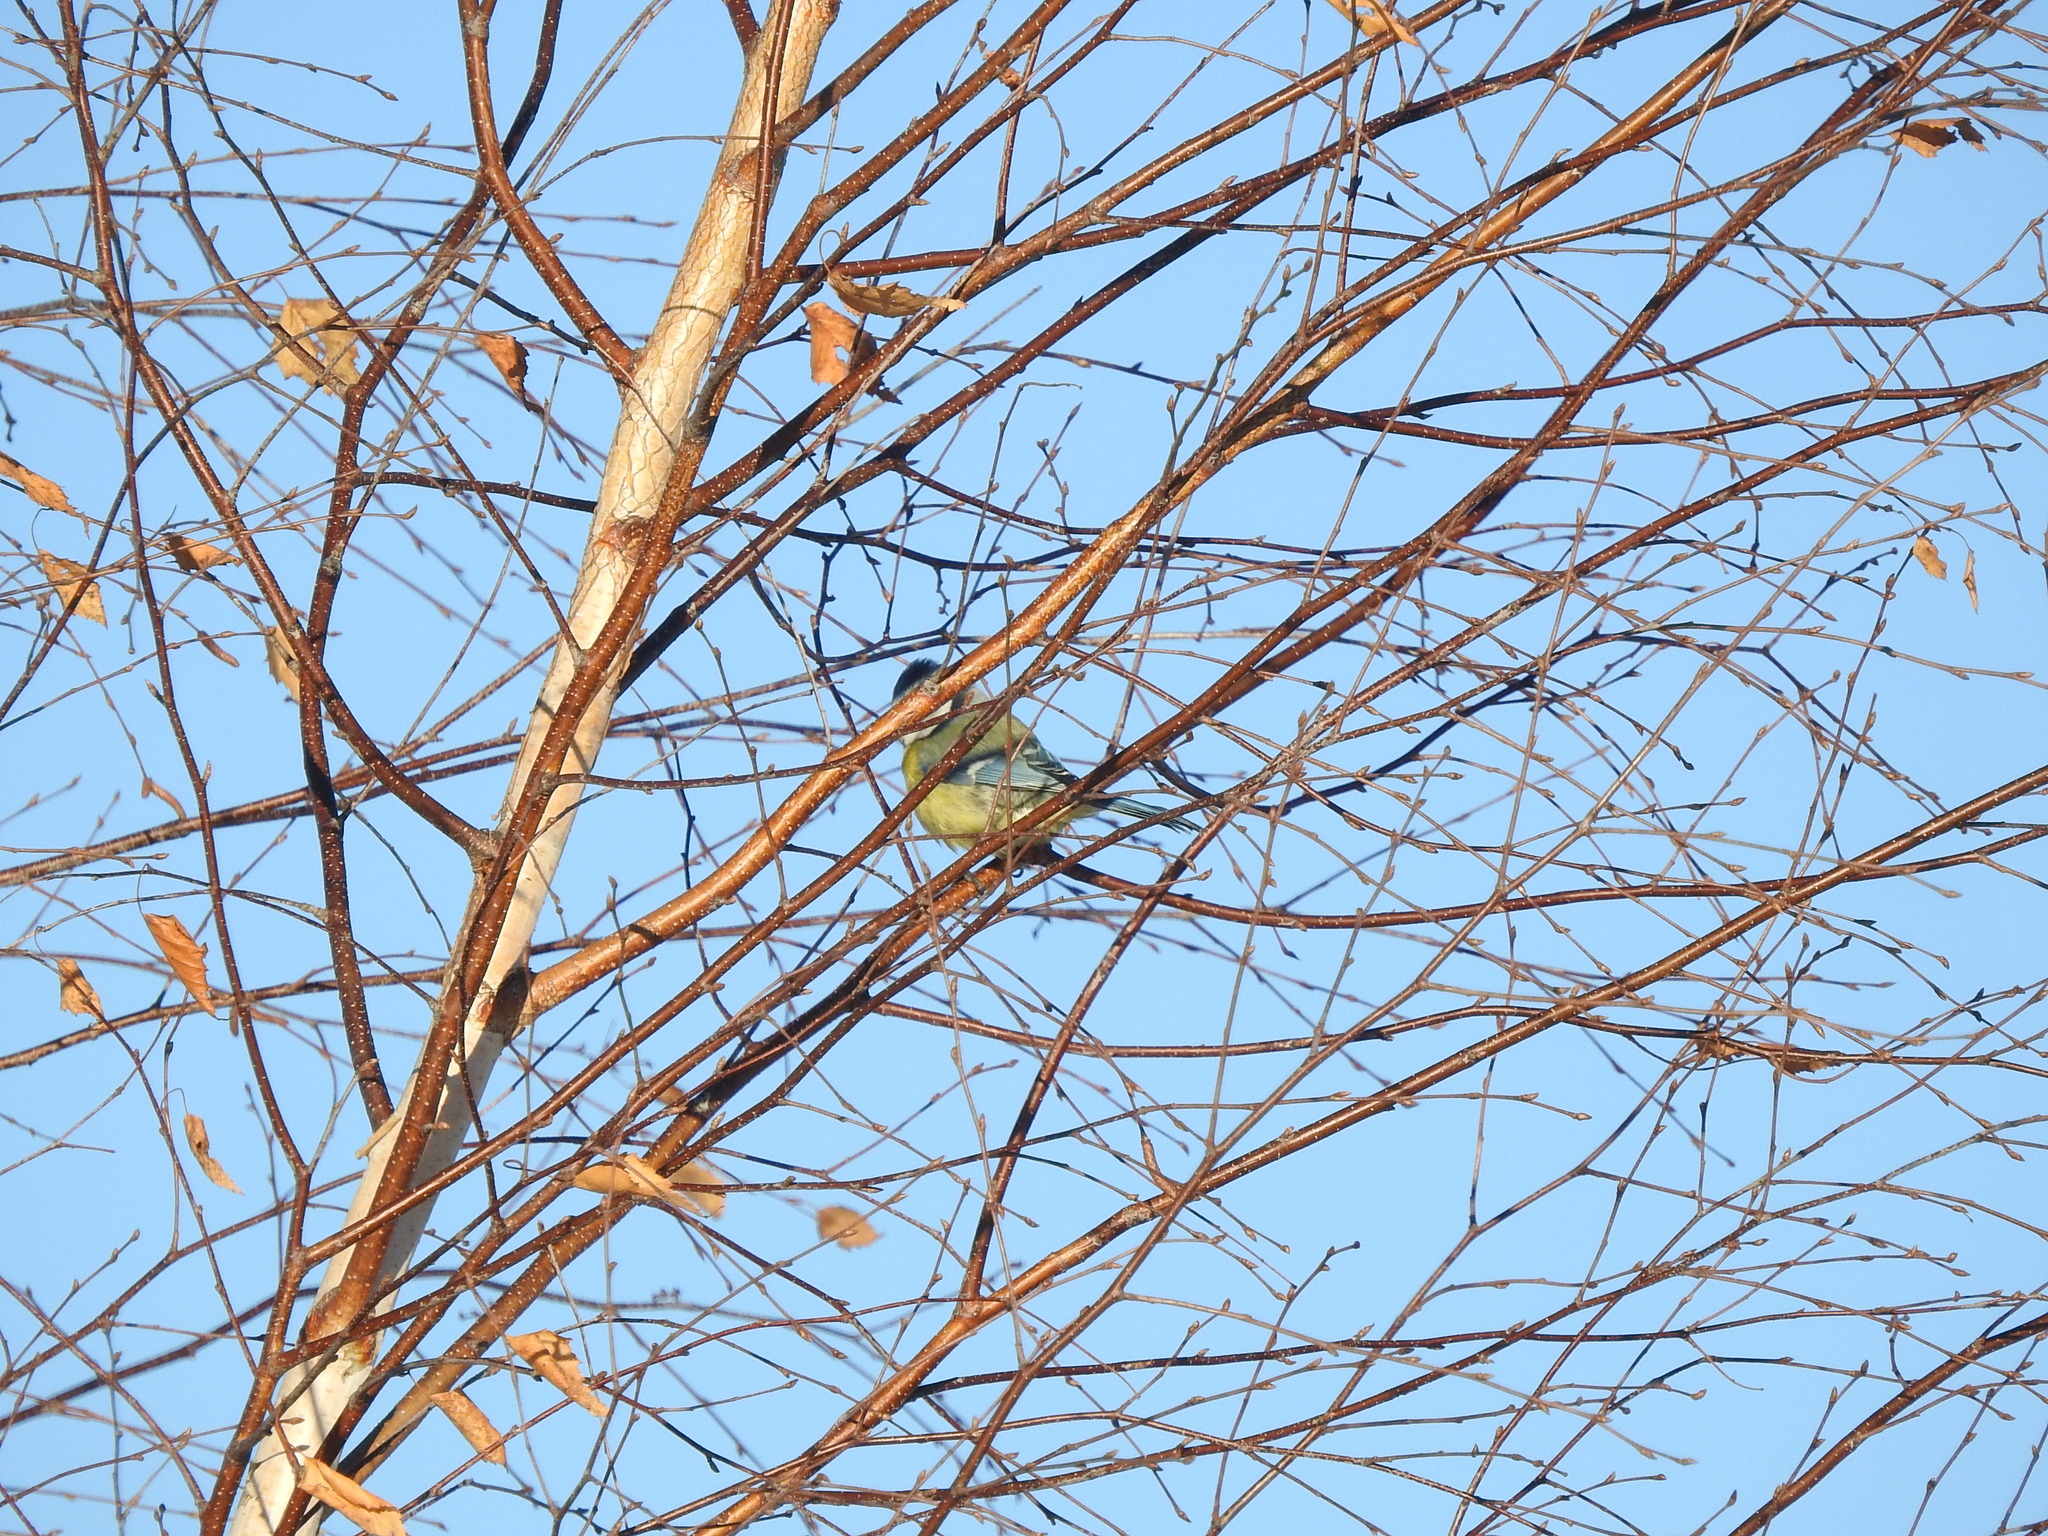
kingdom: Animalia
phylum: Chordata
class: Aves
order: Passeriformes
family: Paridae
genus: Cyanistes
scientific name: Cyanistes caeruleus
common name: Eurasian blue tit
